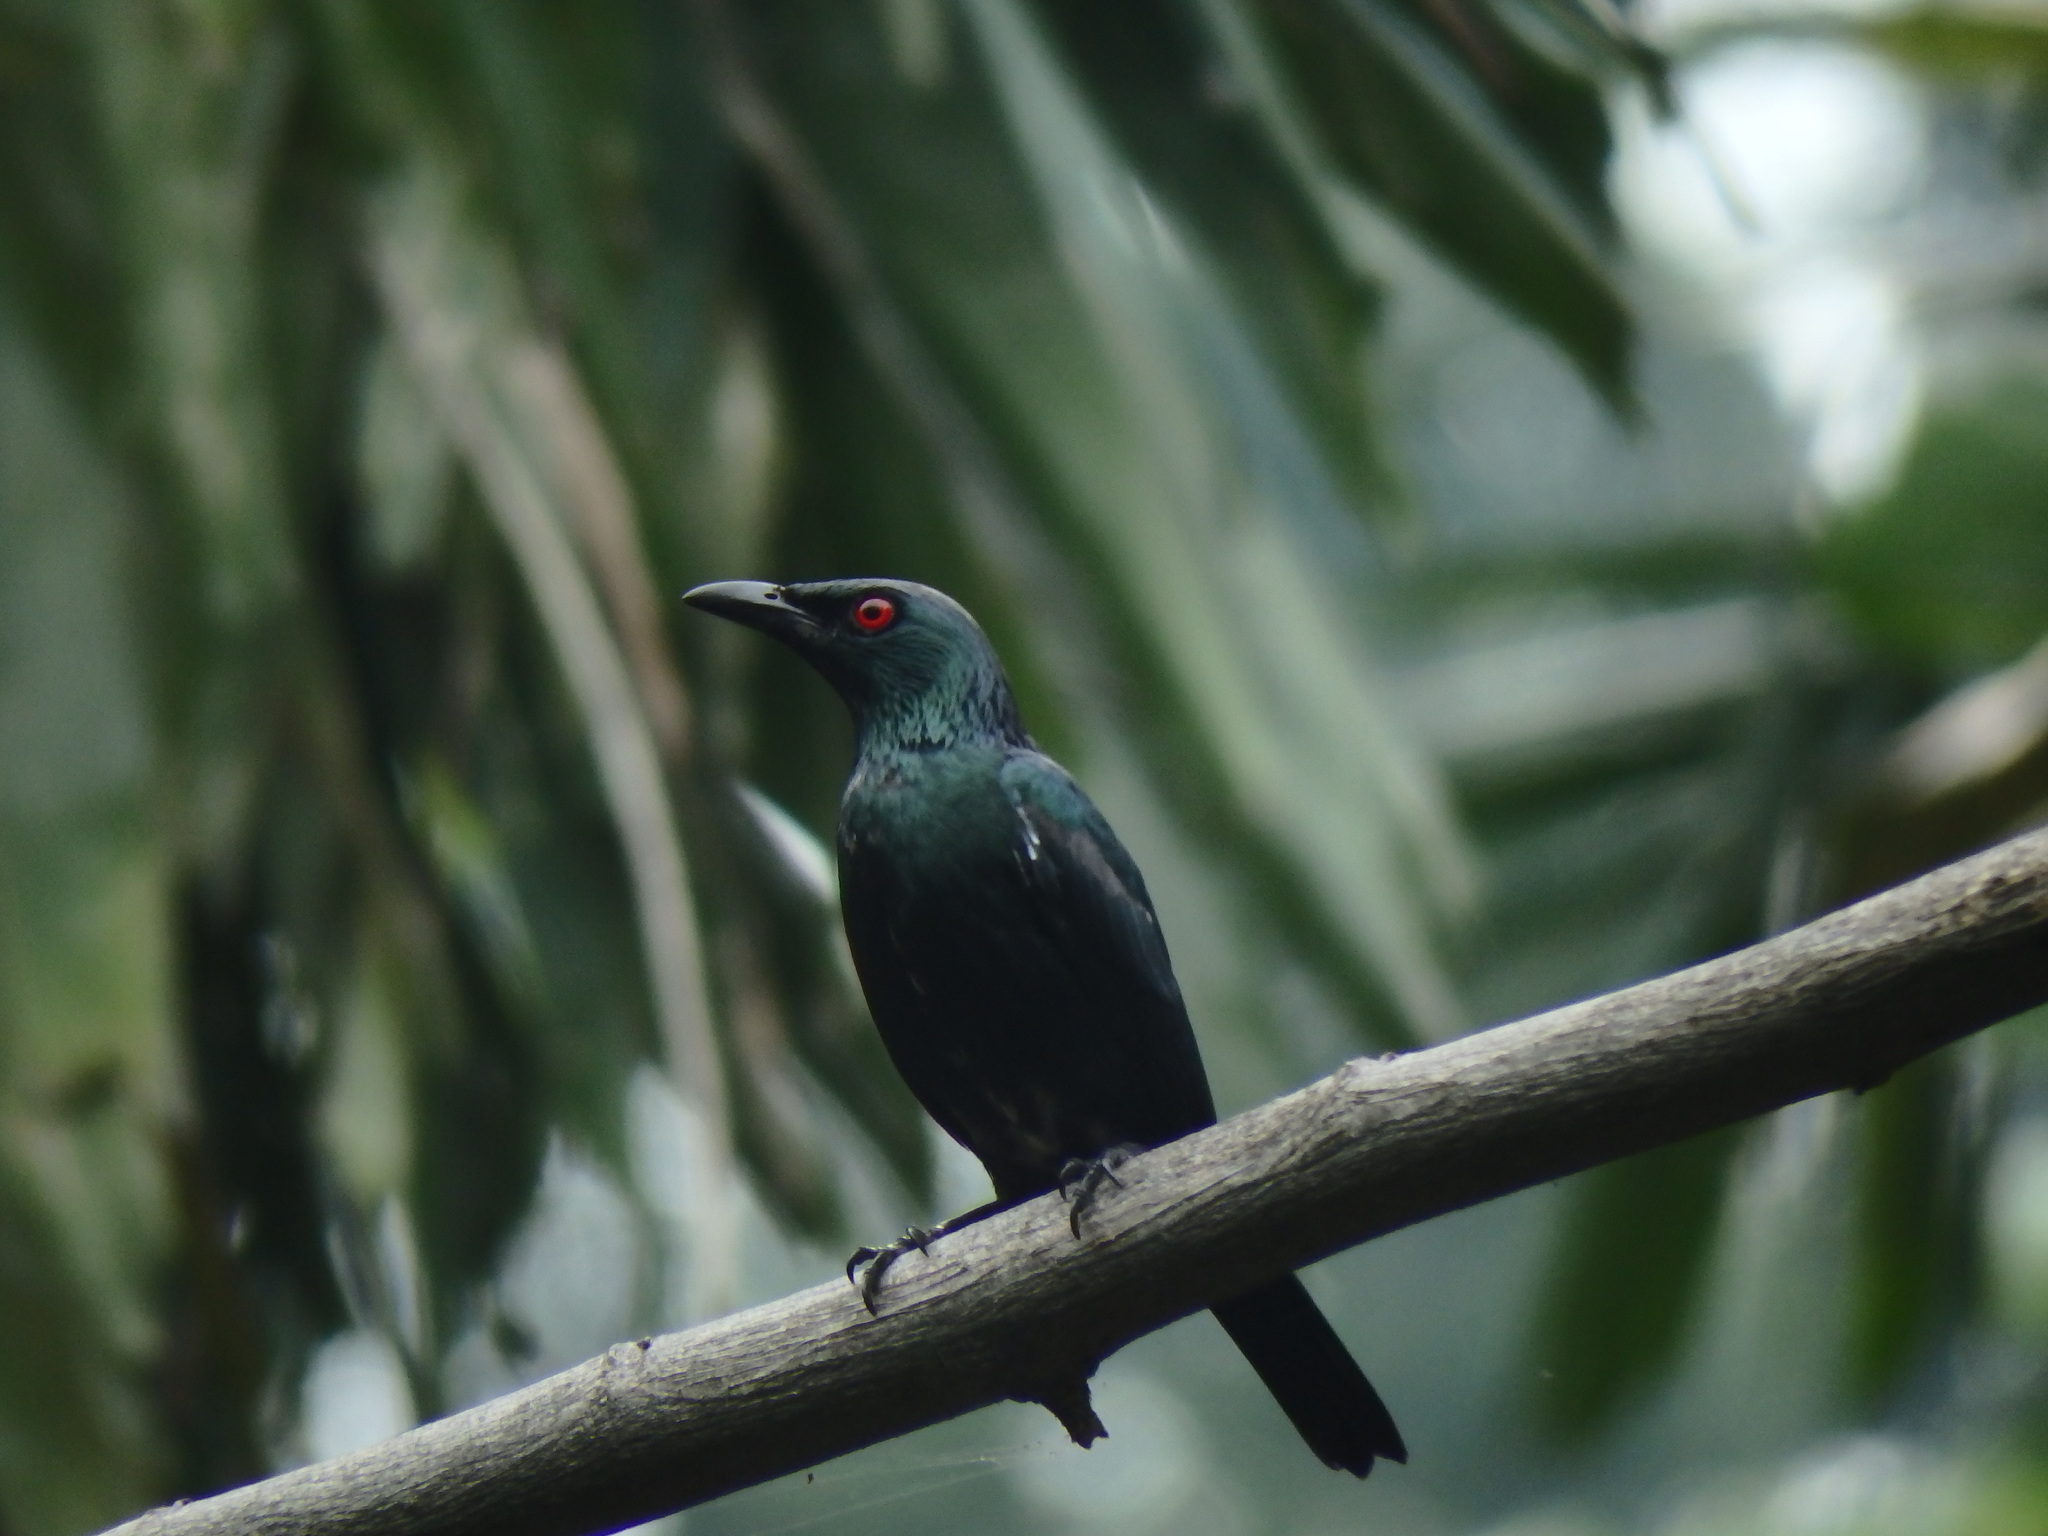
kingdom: Animalia
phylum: Chordata
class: Aves
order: Passeriformes
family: Sturnidae
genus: Aplonis
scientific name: Aplonis panayensis
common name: Asian glossy starling
